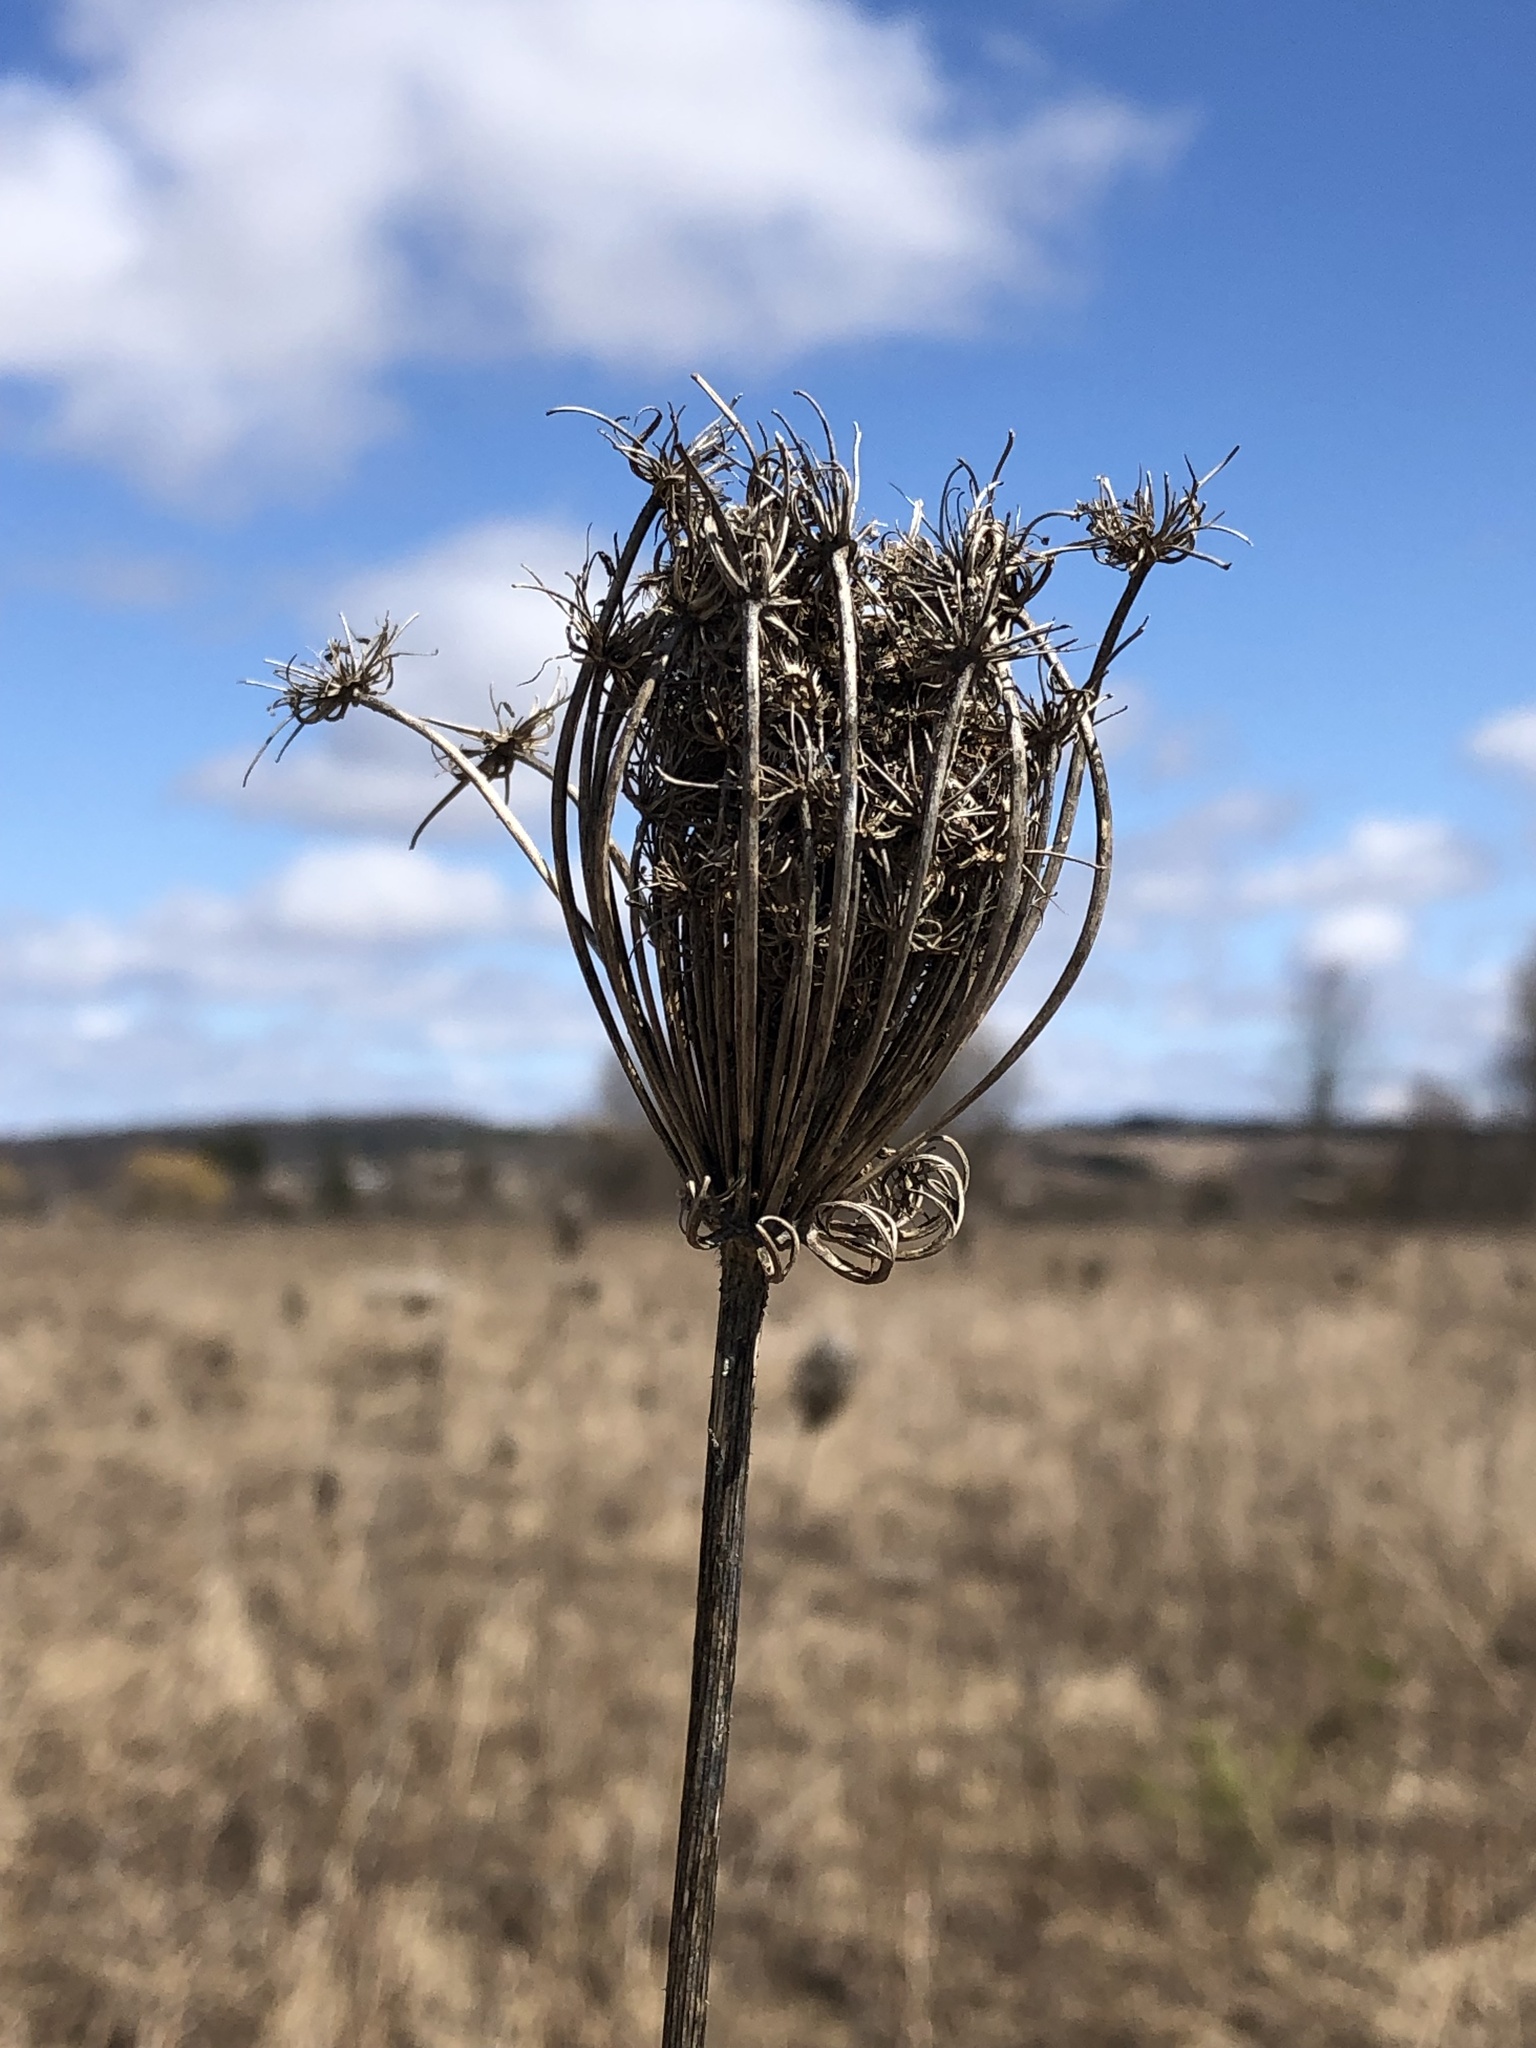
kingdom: Plantae
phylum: Tracheophyta
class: Magnoliopsida
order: Apiales
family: Apiaceae
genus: Daucus
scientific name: Daucus carota
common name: Wild carrot
